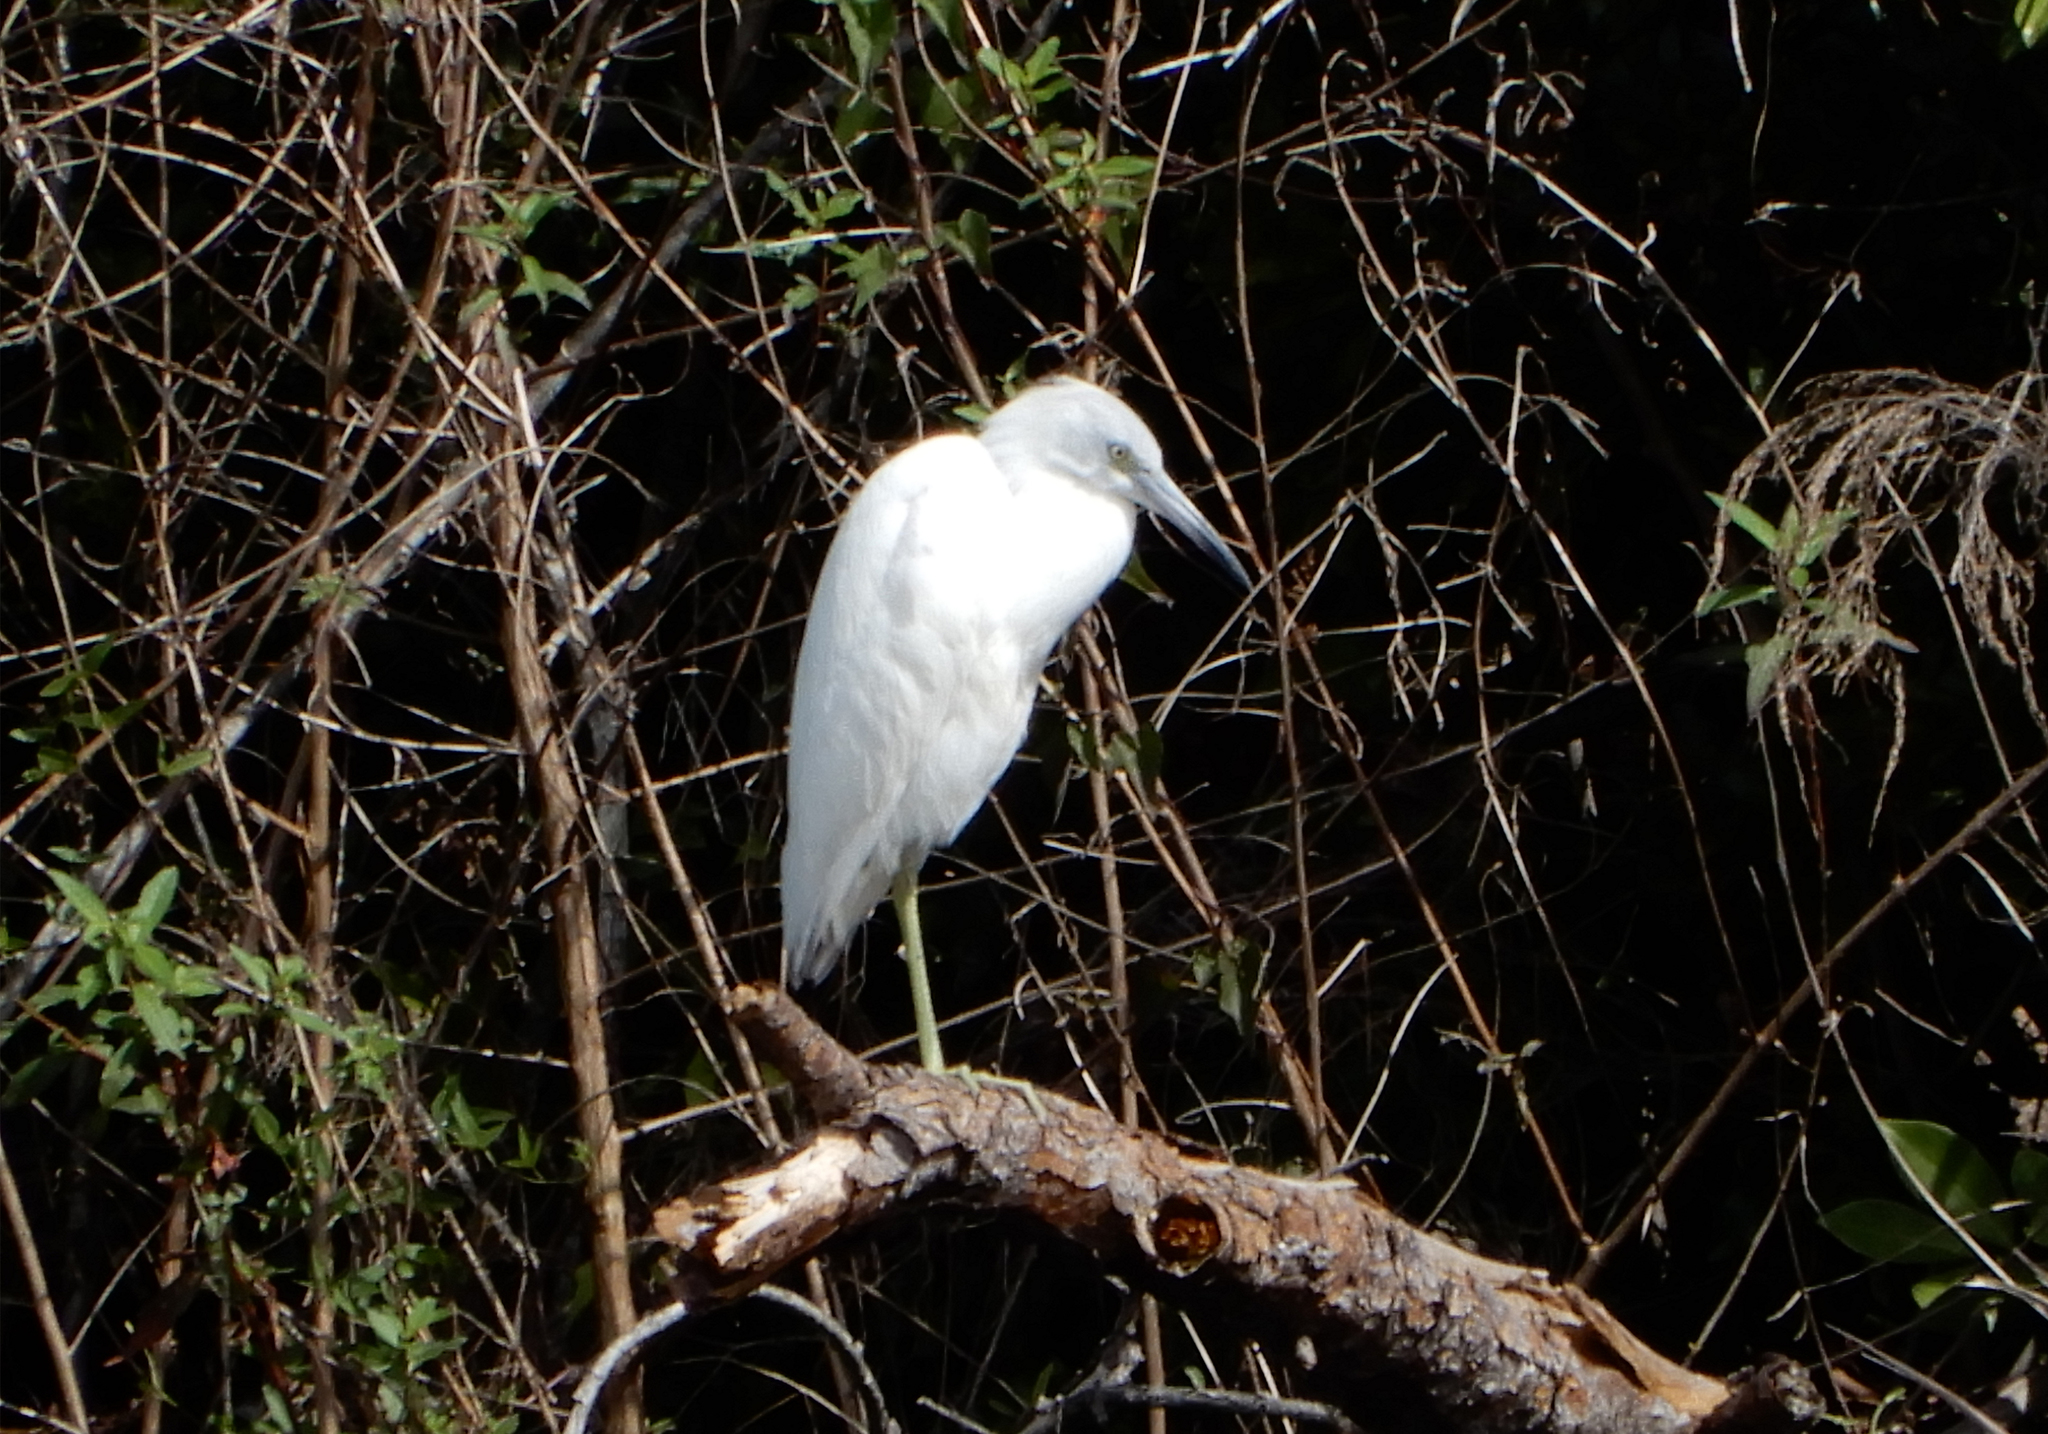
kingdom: Animalia
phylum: Chordata
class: Aves
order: Pelecaniformes
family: Ardeidae
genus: Egretta
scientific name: Egretta caerulea
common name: Little blue heron
